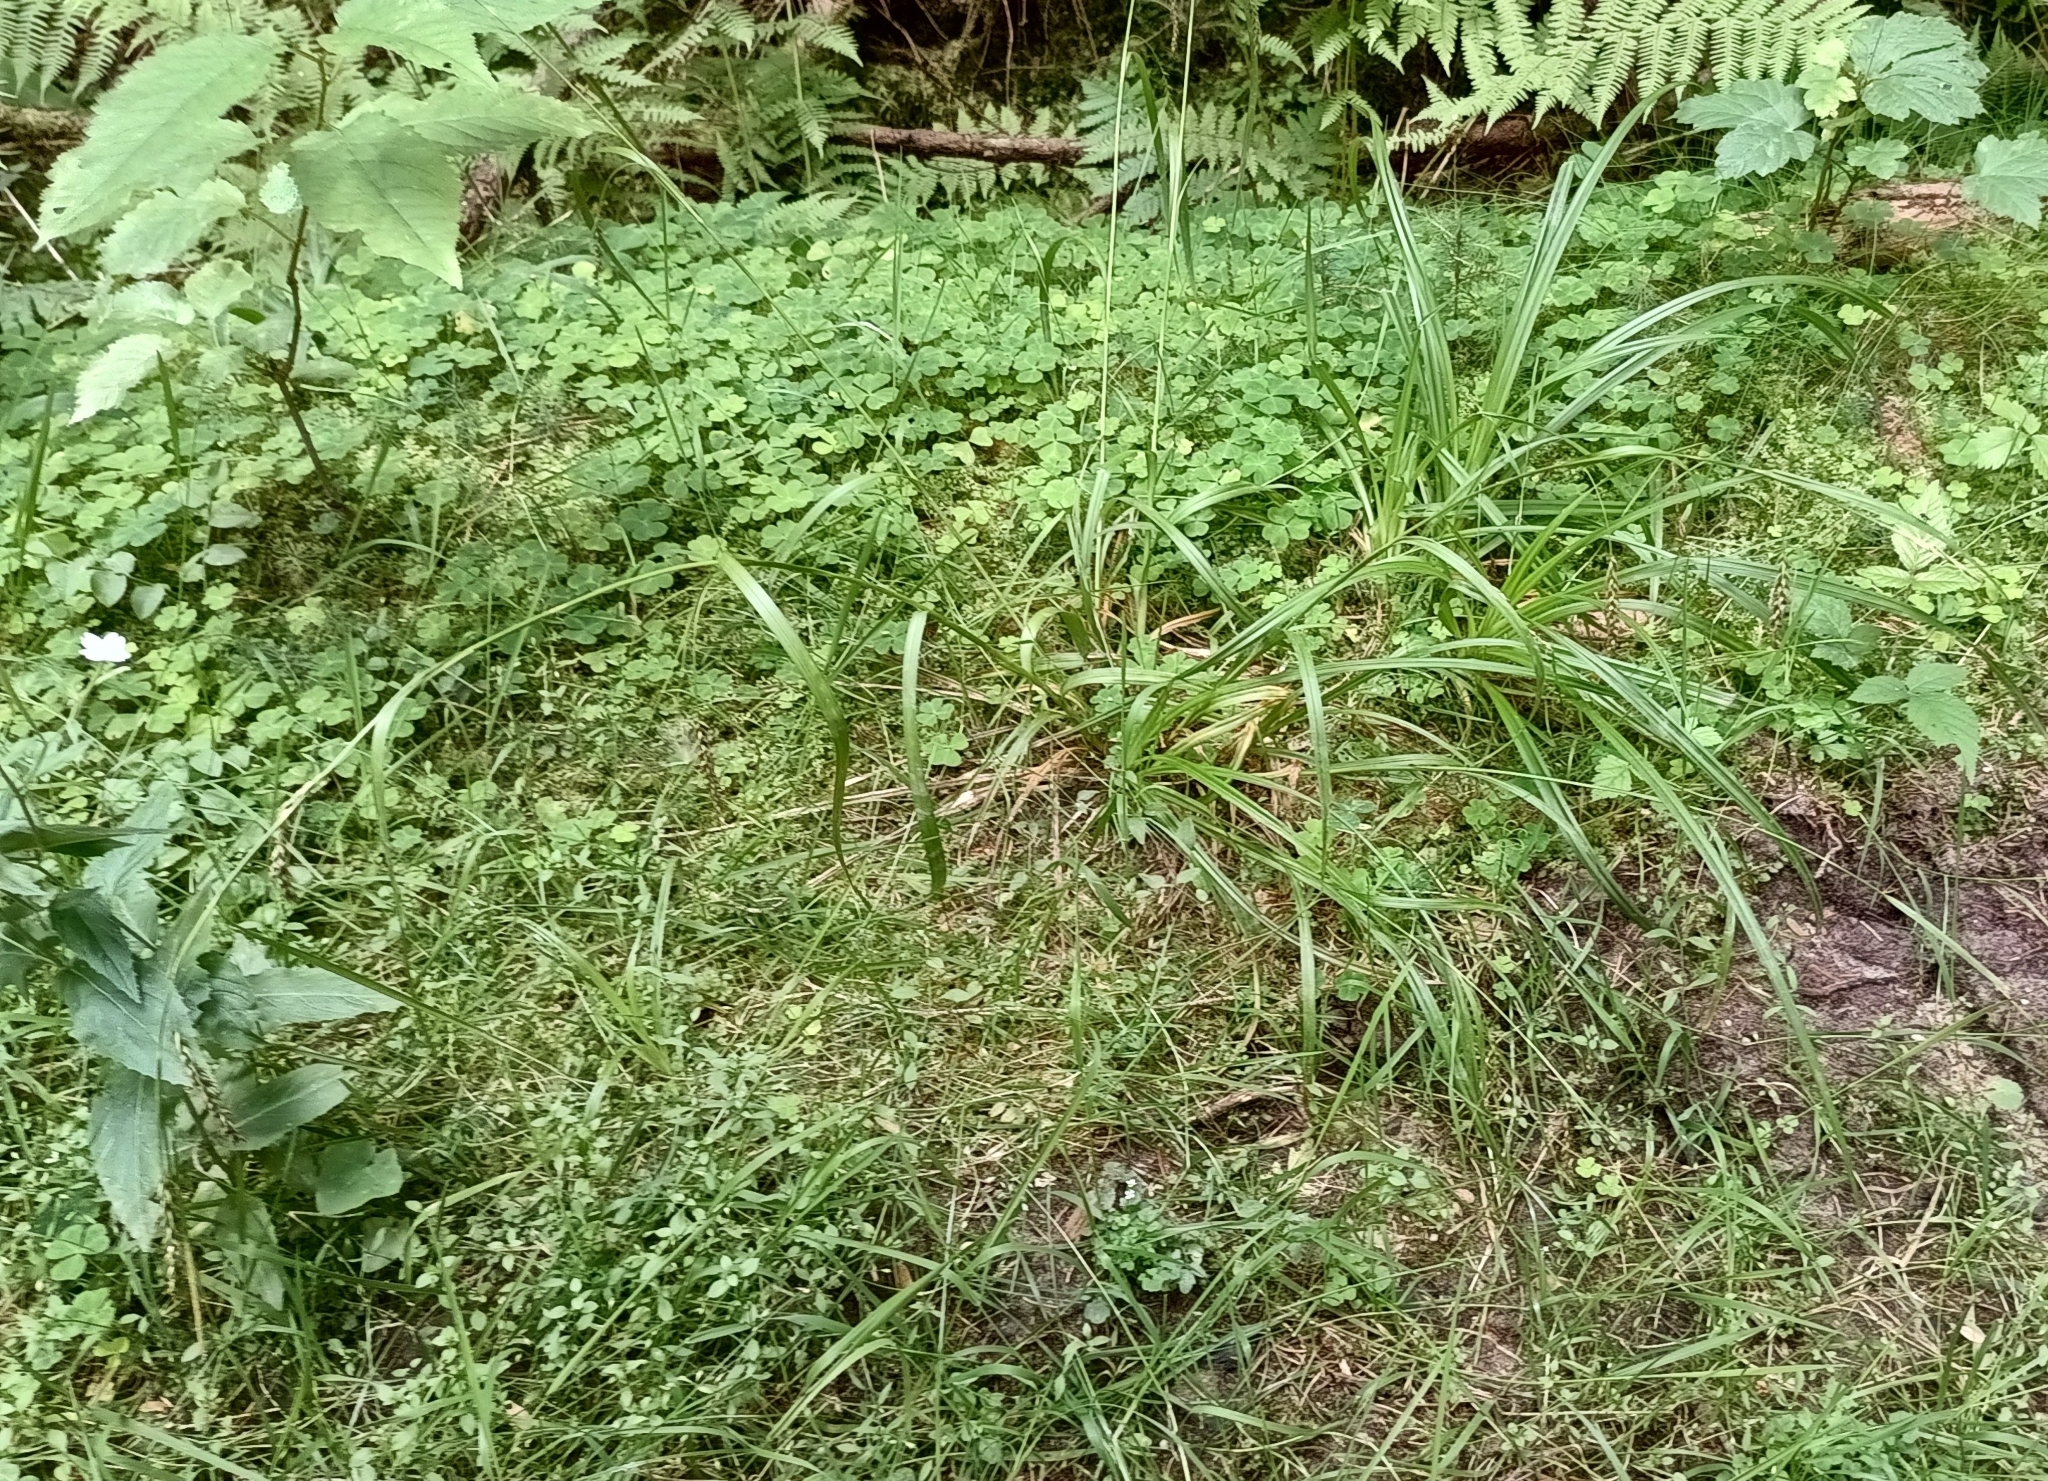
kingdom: Plantae
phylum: Tracheophyta
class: Liliopsida
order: Poales
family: Cyperaceae
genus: Carex
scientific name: Carex sylvatica
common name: Wood-sedge
